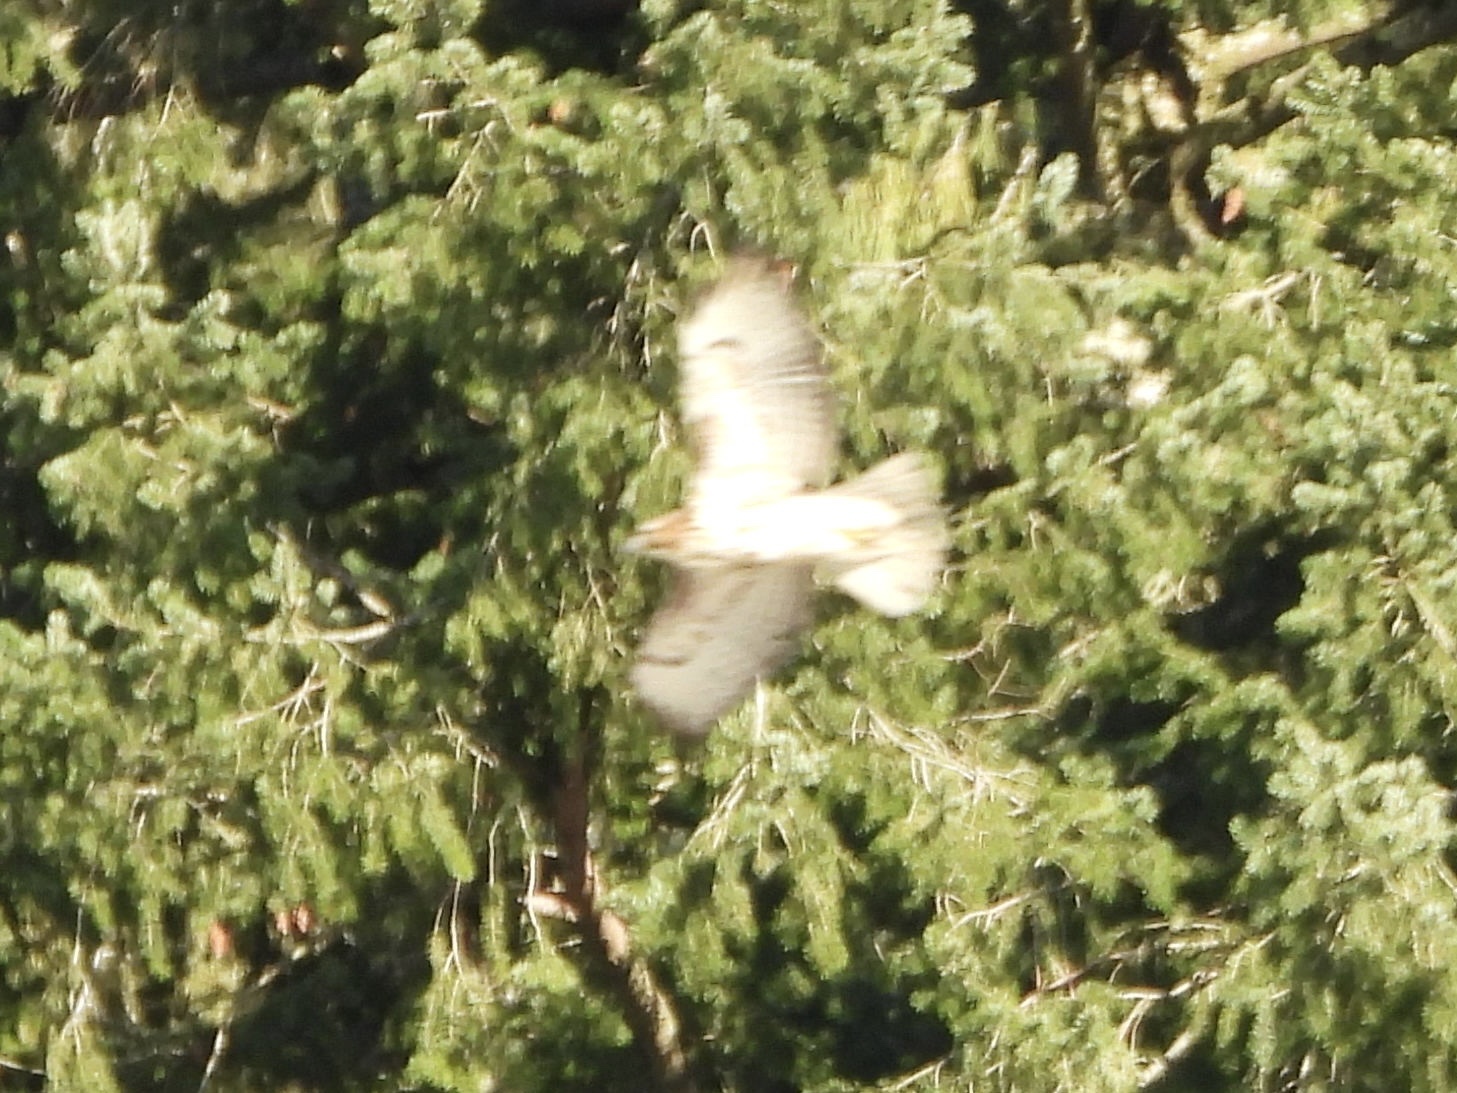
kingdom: Animalia
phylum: Chordata
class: Aves
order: Accipitriformes
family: Accipitridae
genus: Buteo
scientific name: Buteo jamaicensis
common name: Red-tailed hawk
